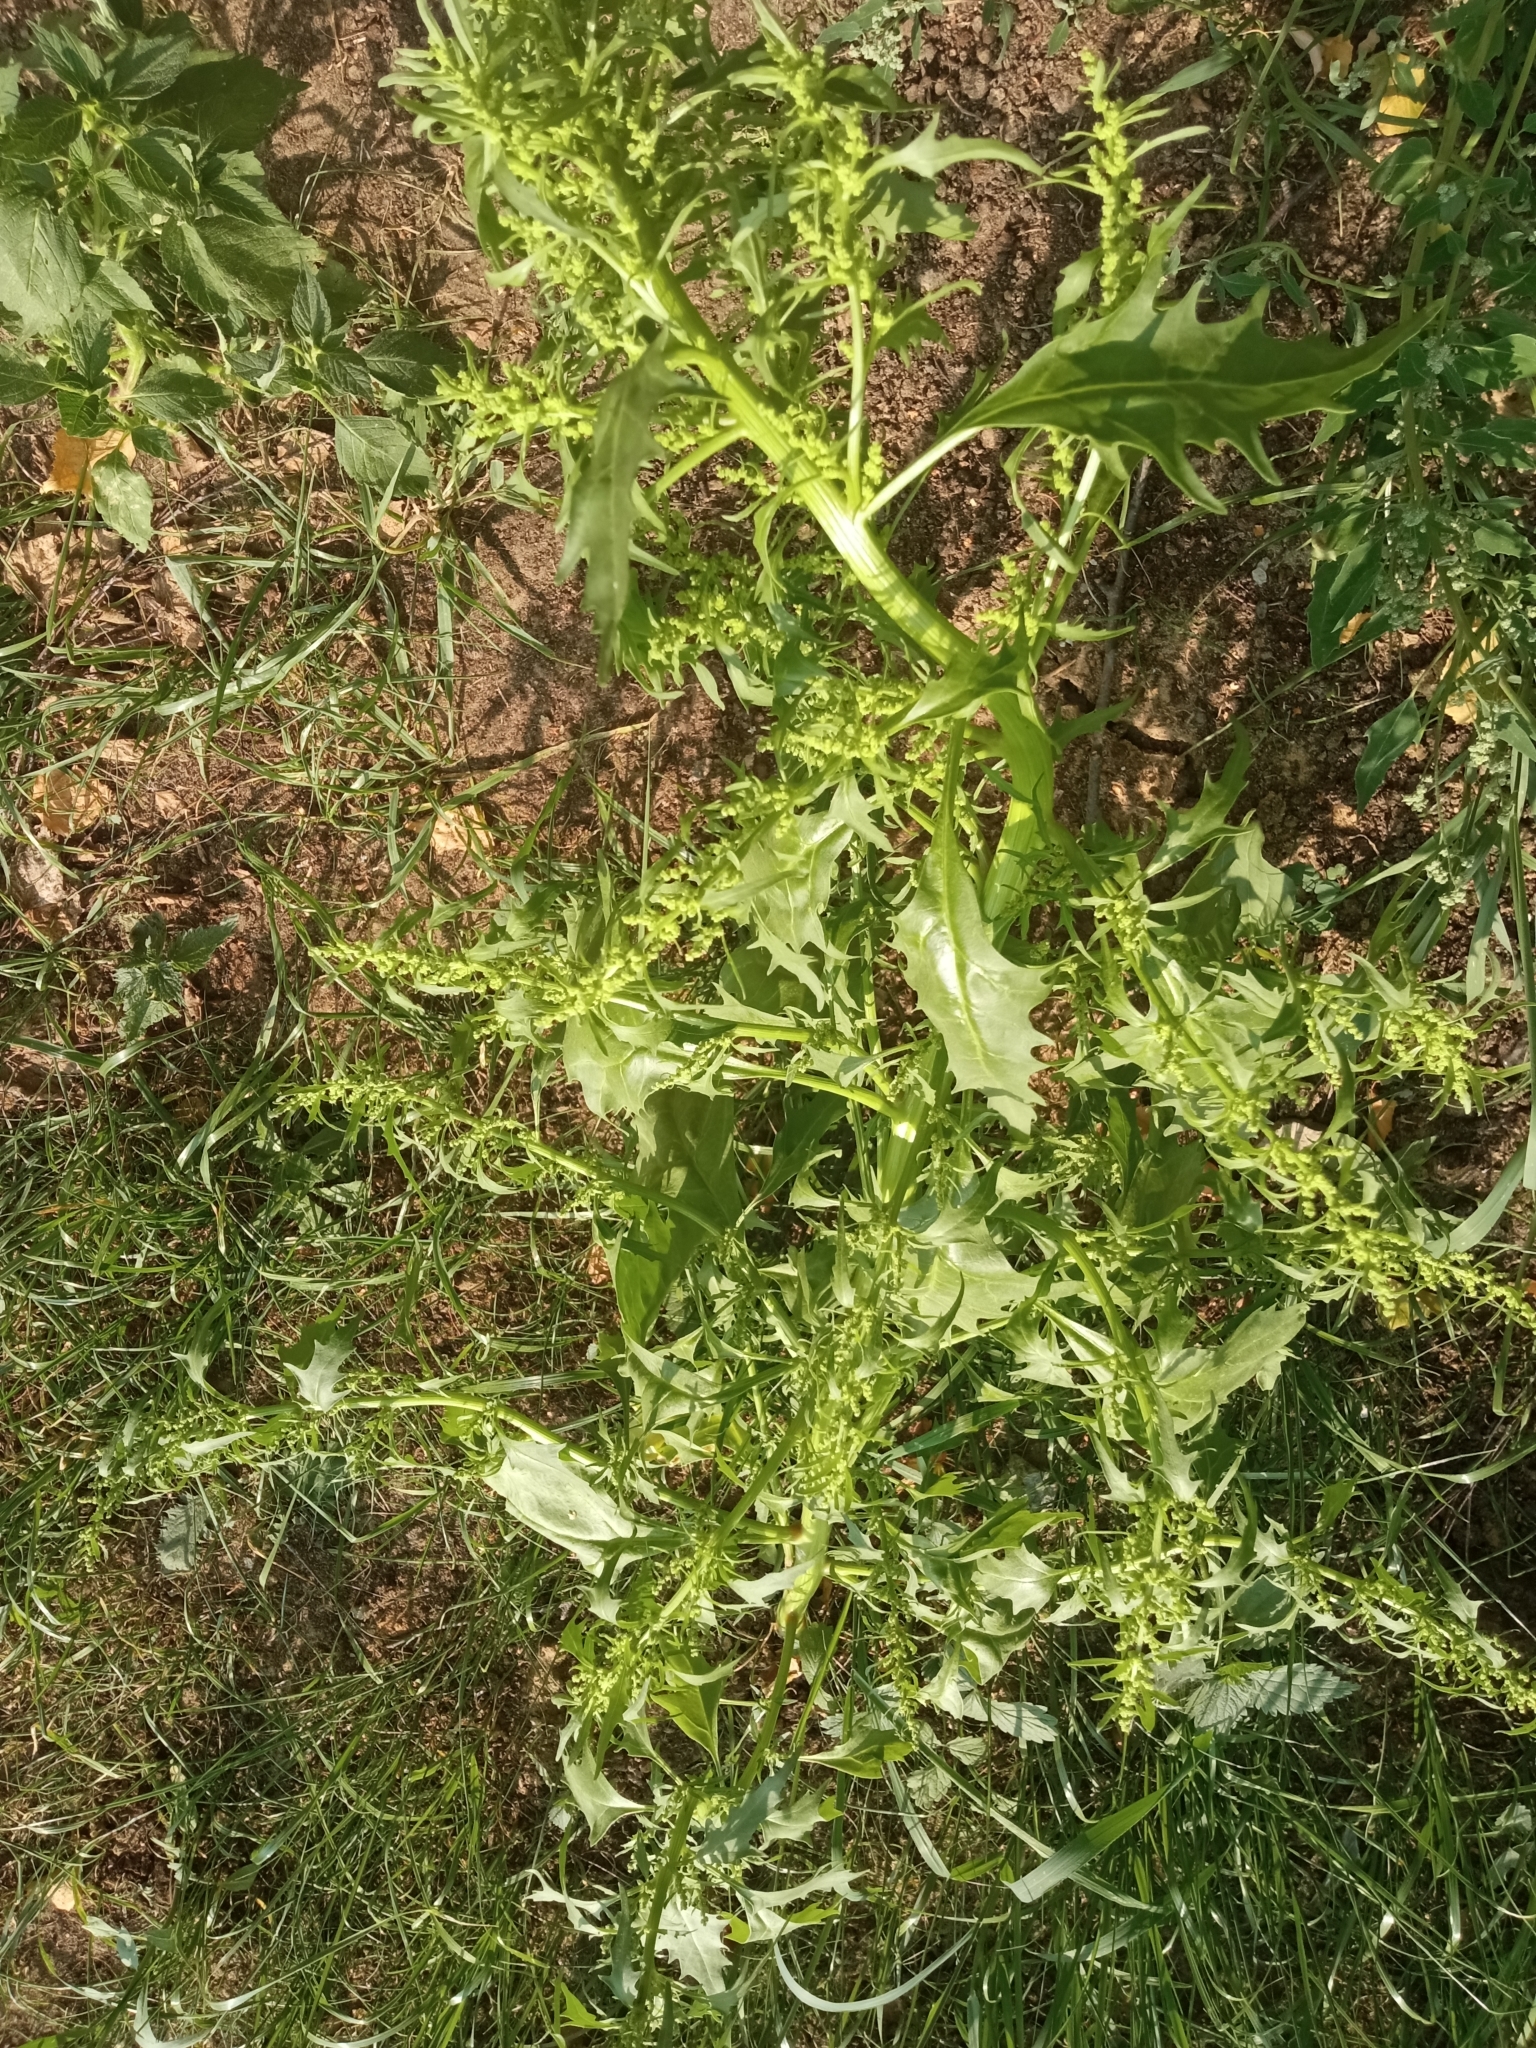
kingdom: Plantae
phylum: Tracheophyta
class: Magnoliopsida
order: Caryophyllales
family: Amaranthaceae
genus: Oxybasis
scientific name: Oxybasis rubra
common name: Red goosefoot
